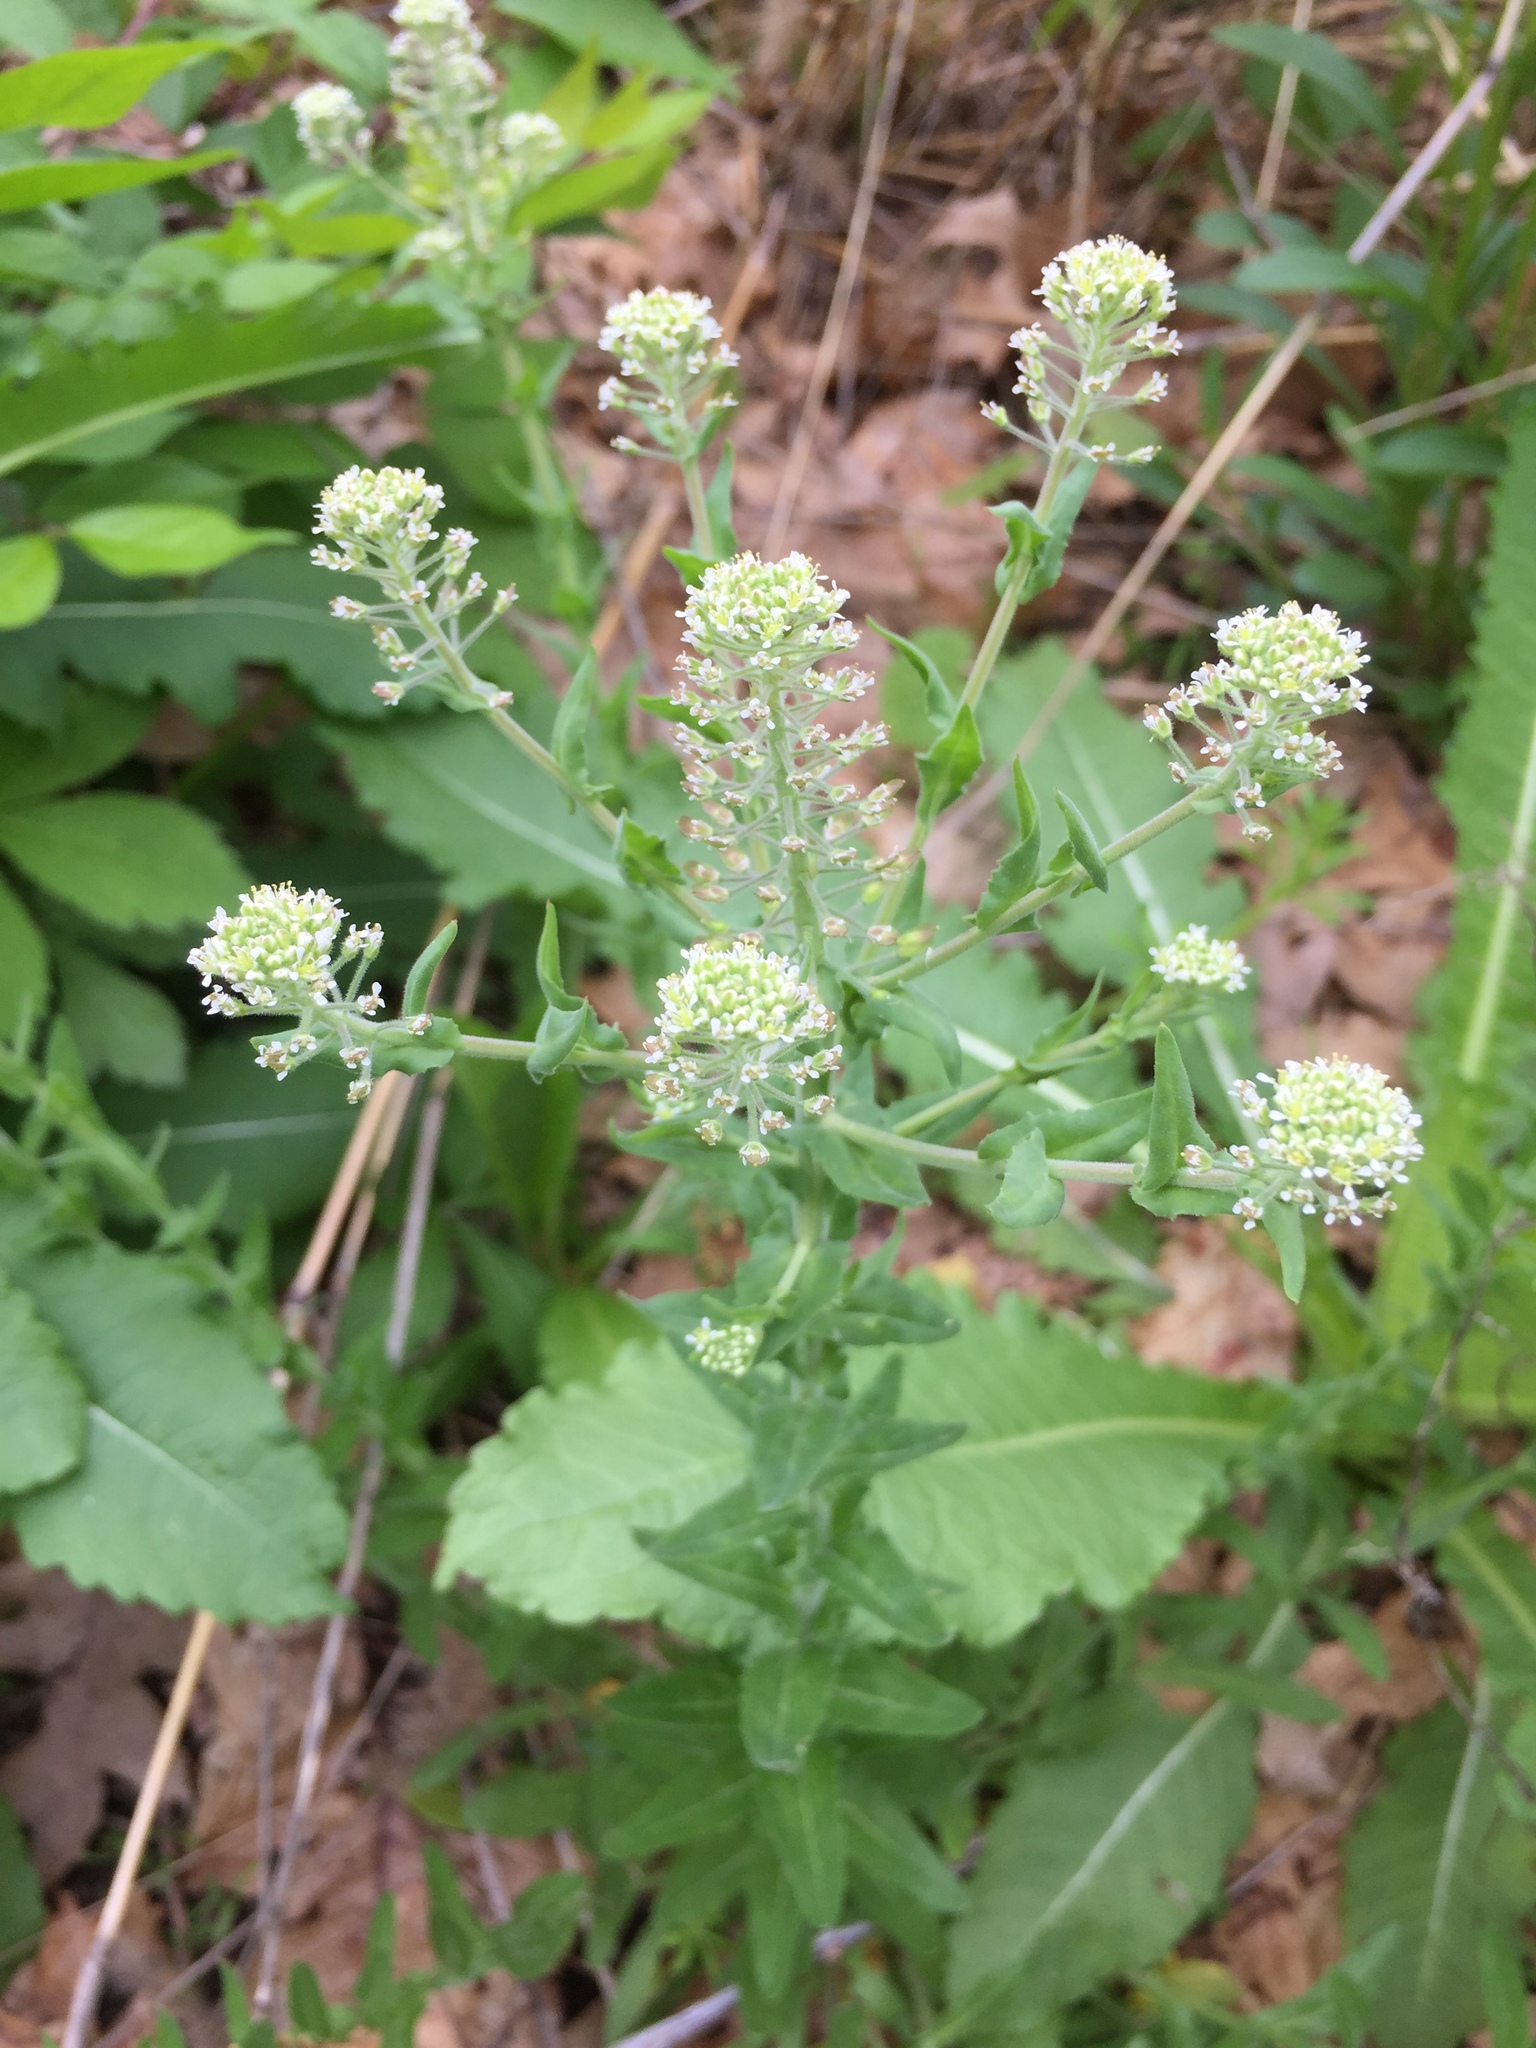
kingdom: Plantae
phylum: Tracheophyta
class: Magnoliopsida
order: Brassicales
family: Brassicaceae
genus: Lepidium
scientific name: Lepidium campestre
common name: Field pepperwort
